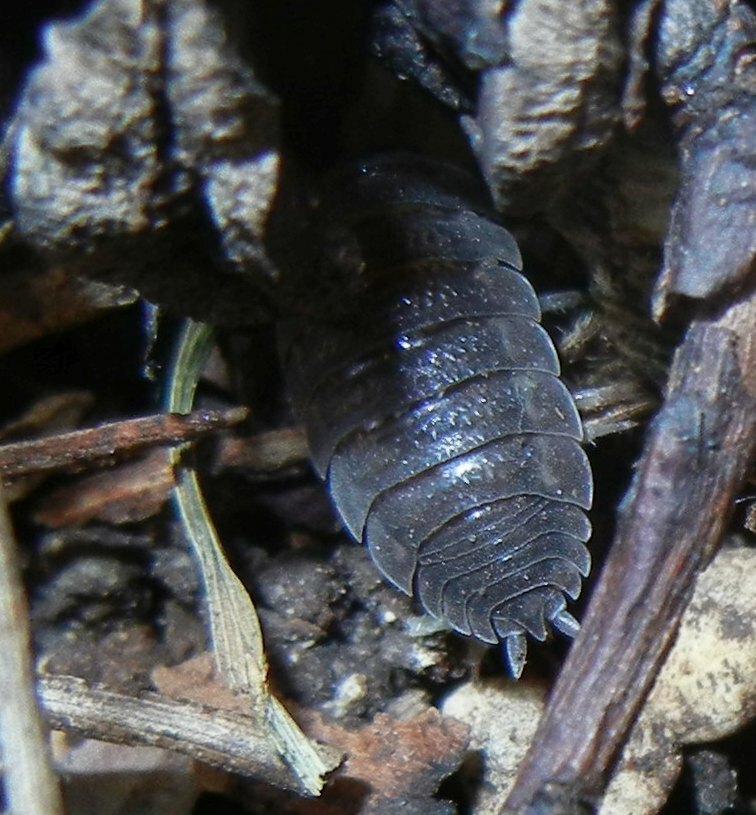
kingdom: Animalia
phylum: Arthropoda
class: Malacostraca
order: Isopoda
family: Porcellionidae
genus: Porcellio
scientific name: Porcellio scaber
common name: Common rough woodlouse
